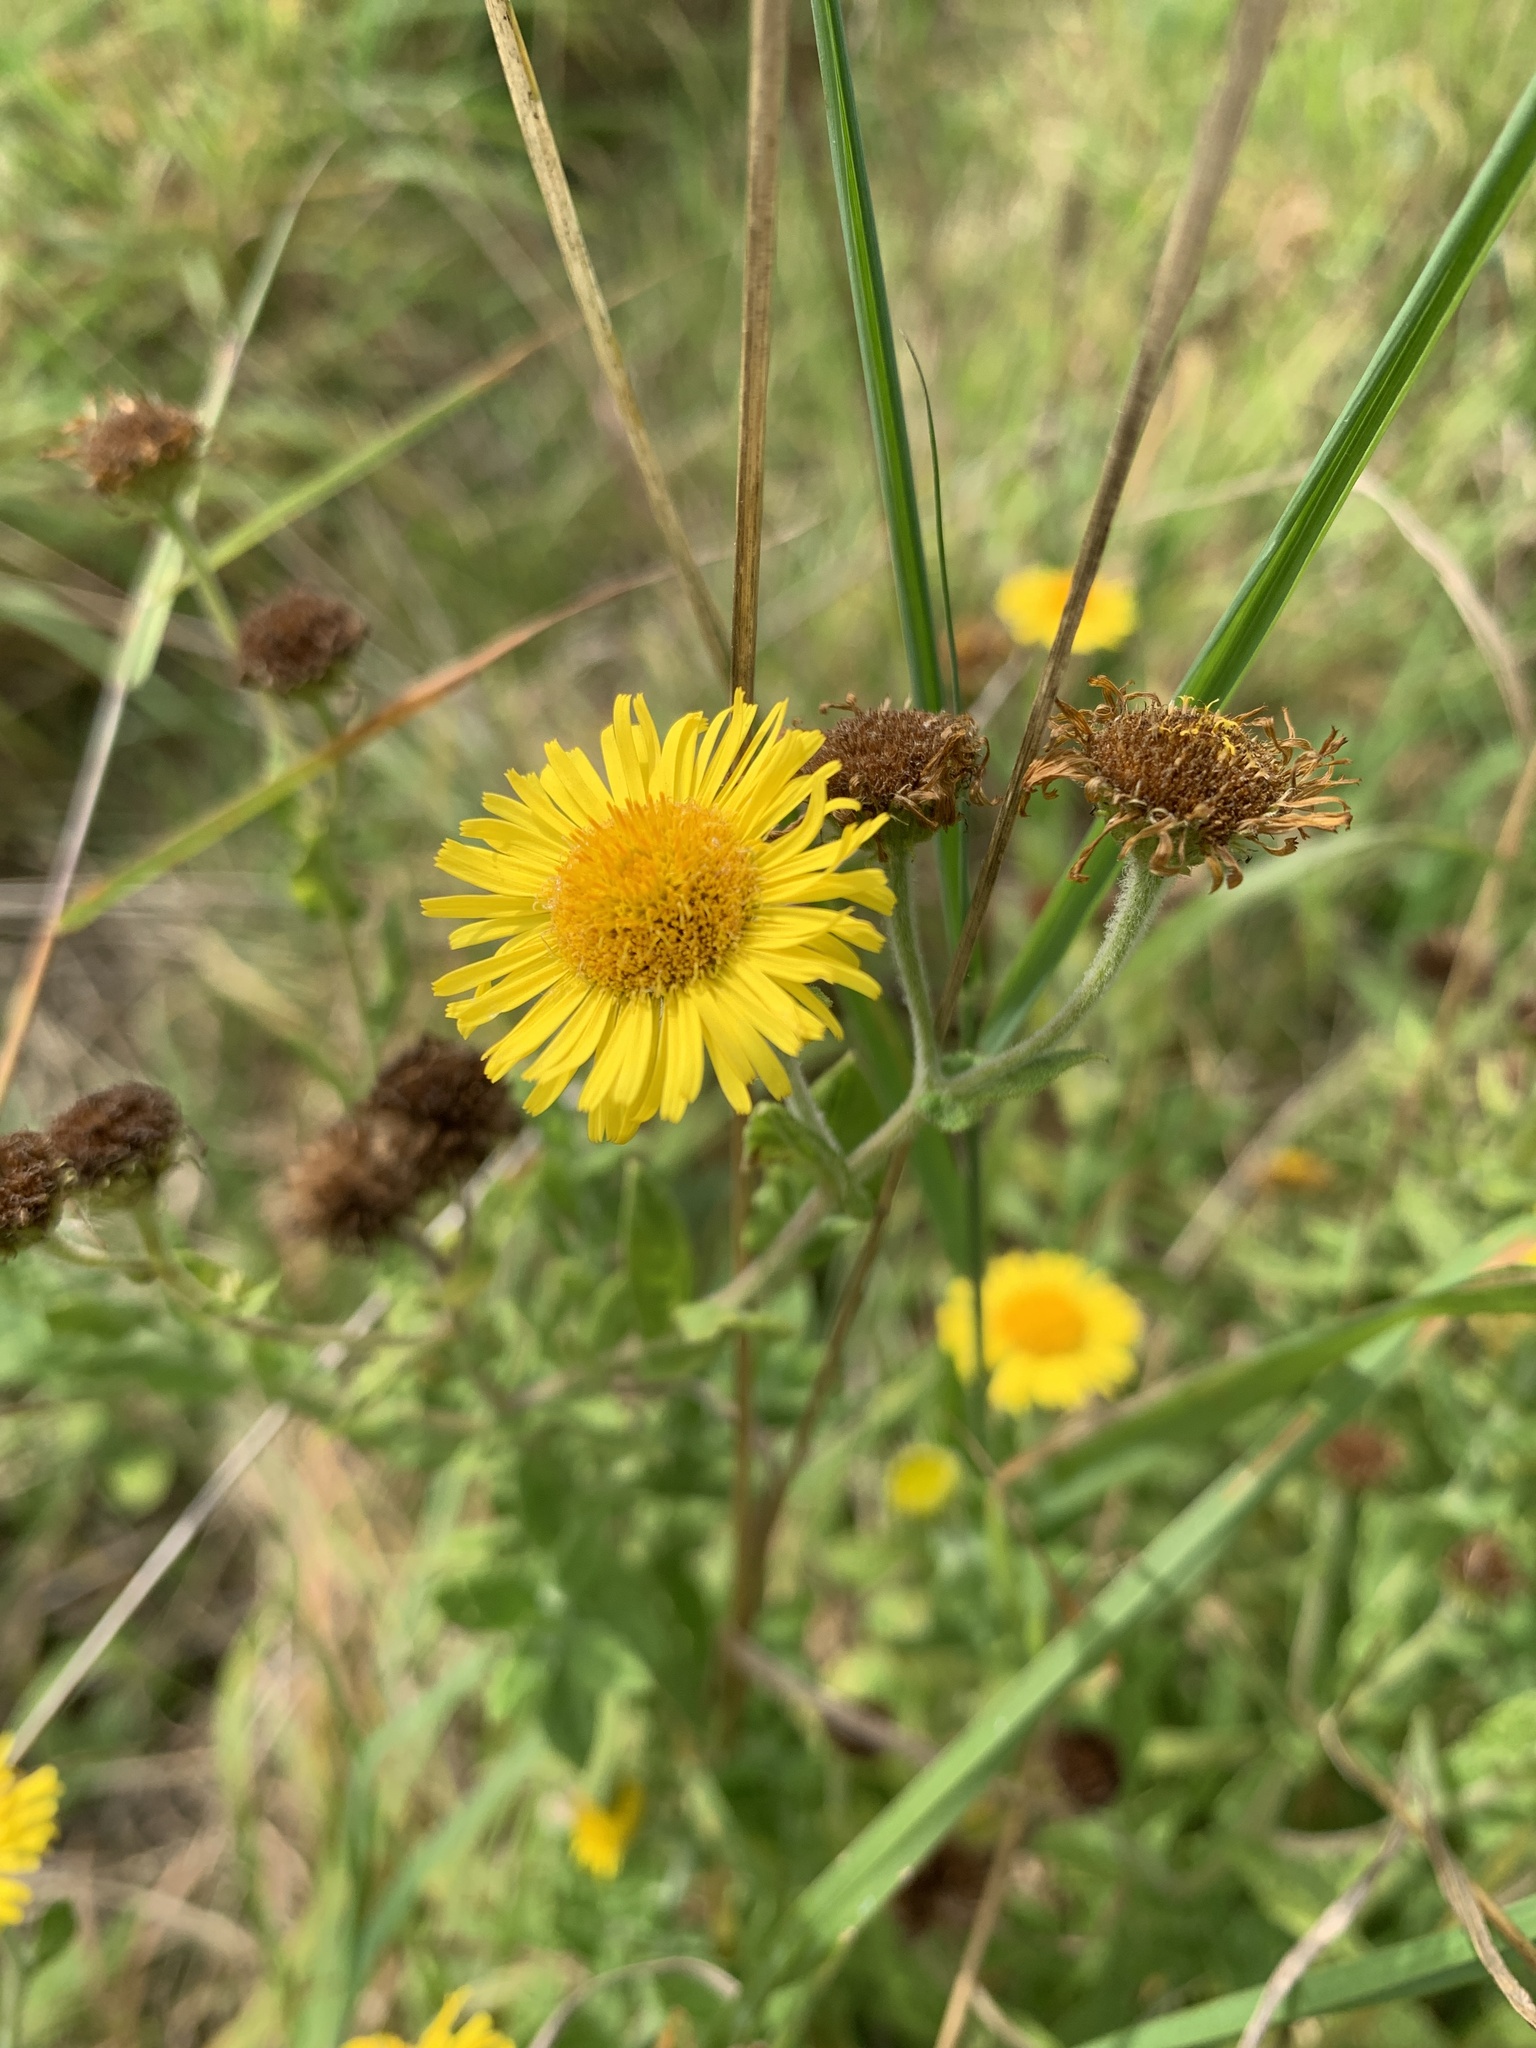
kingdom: Plantae
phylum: Tracheophyta
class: Magnoliopsida
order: Asterales
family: Asteraceae
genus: Pulicaria
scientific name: Pulicaria dysenterica
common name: Common fleabane
